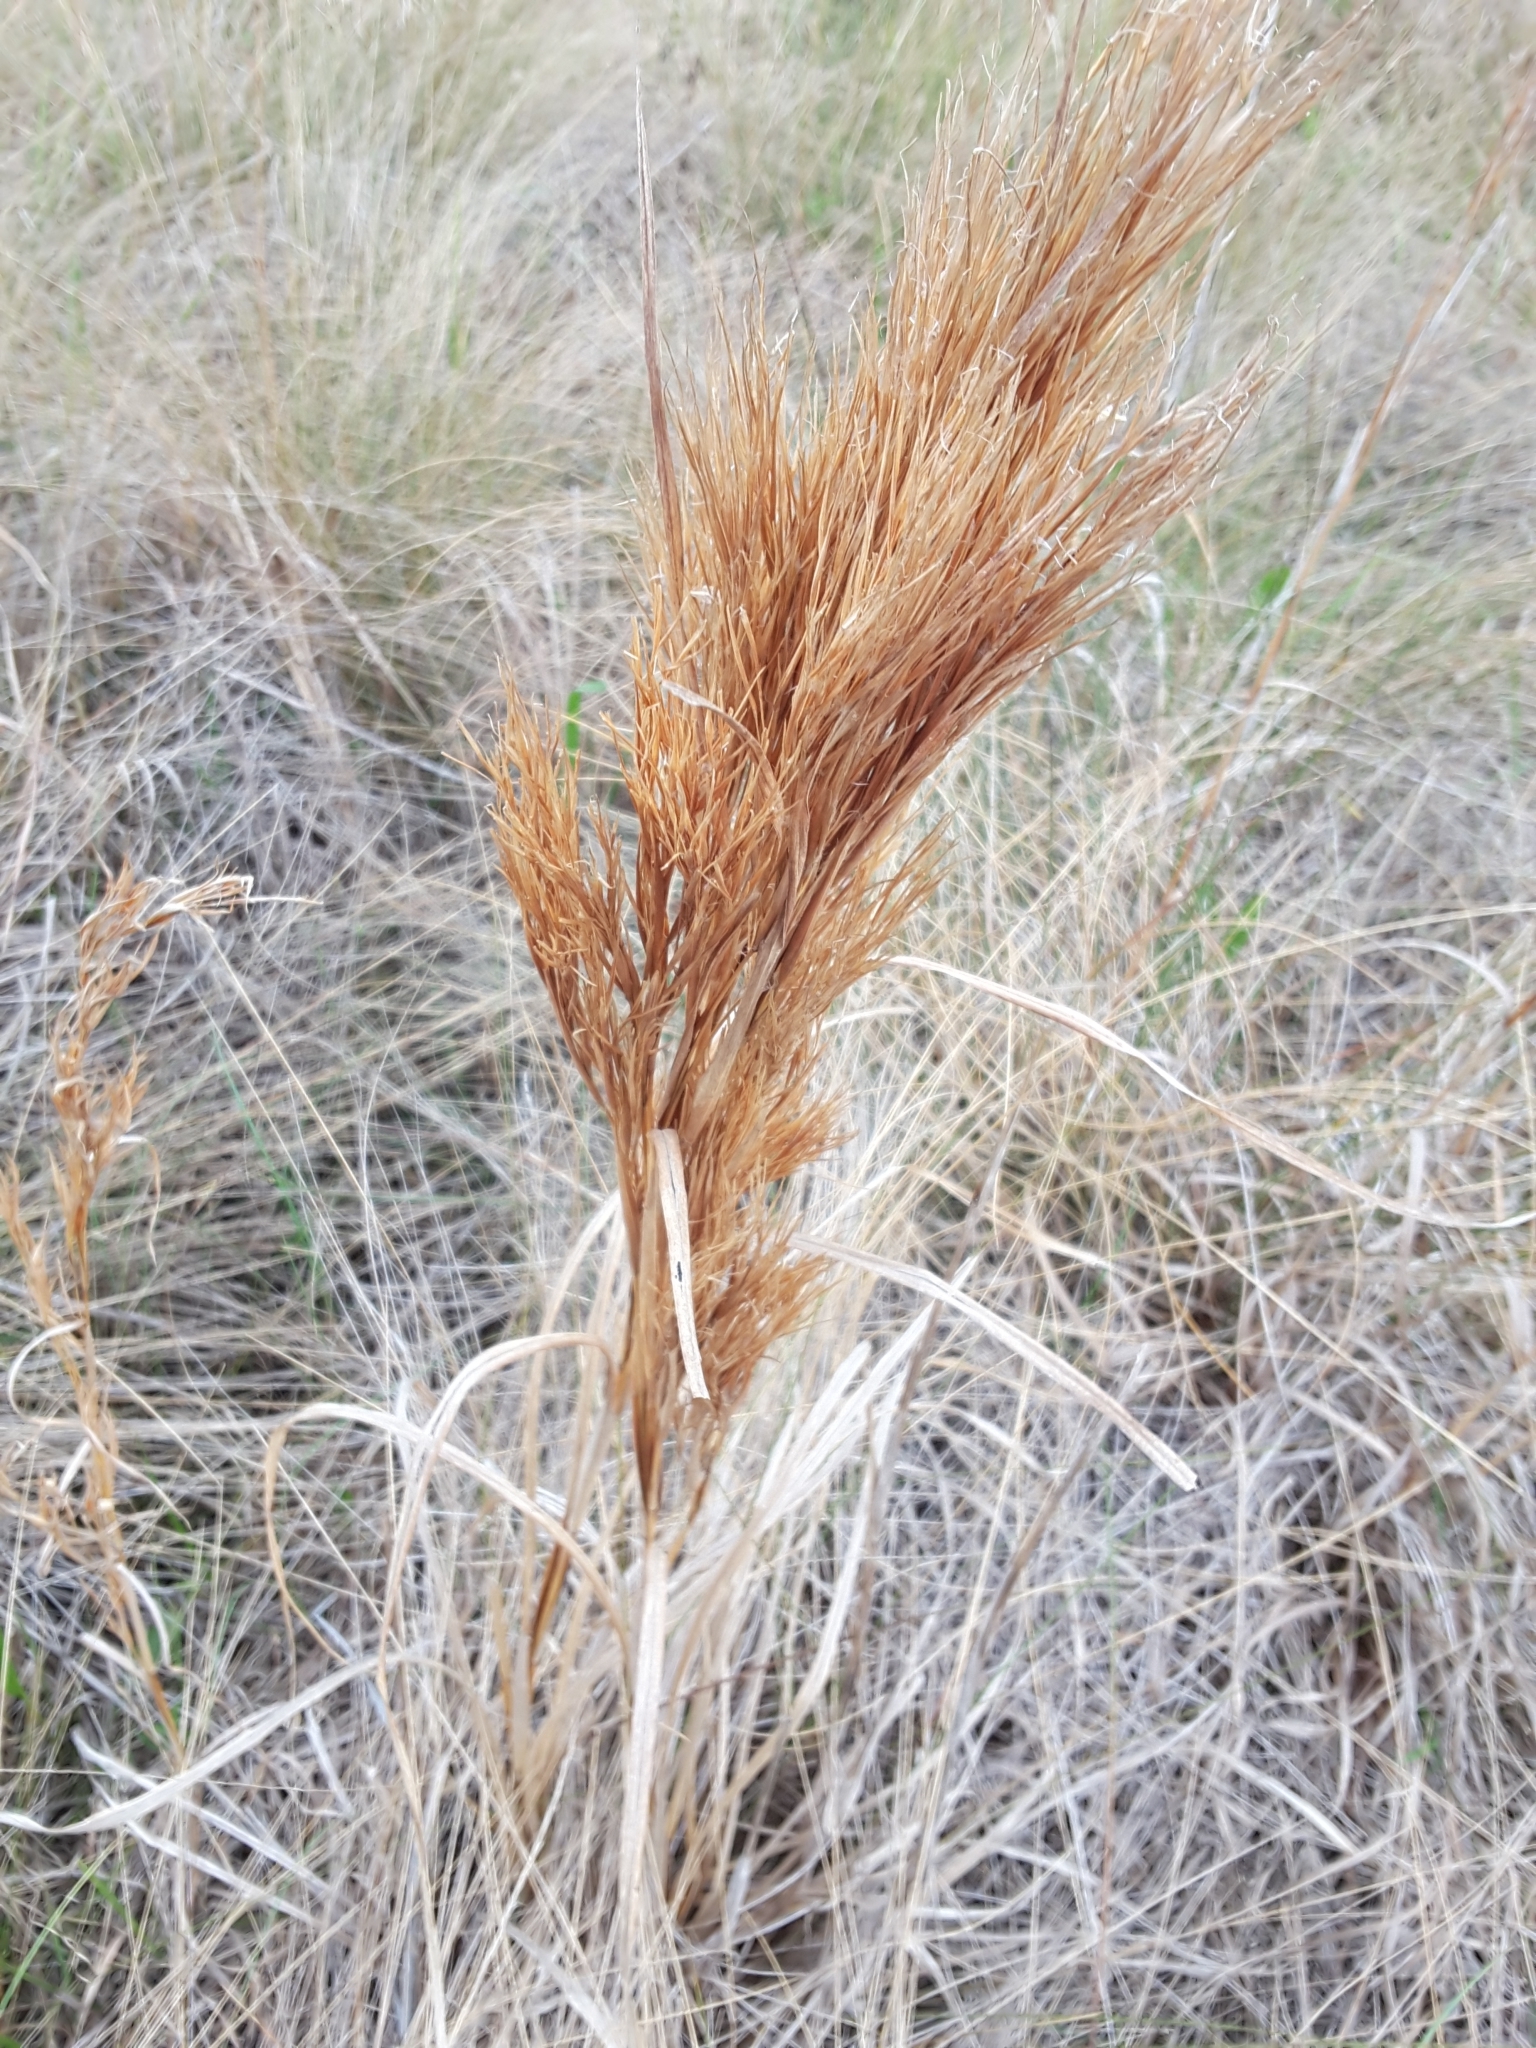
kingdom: Plantae
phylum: Tracheophyta
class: Liliopsida
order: Poales
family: Poaceae
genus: Andropogon
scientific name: Andropogon tenuispatheus
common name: Bushy bluestem
